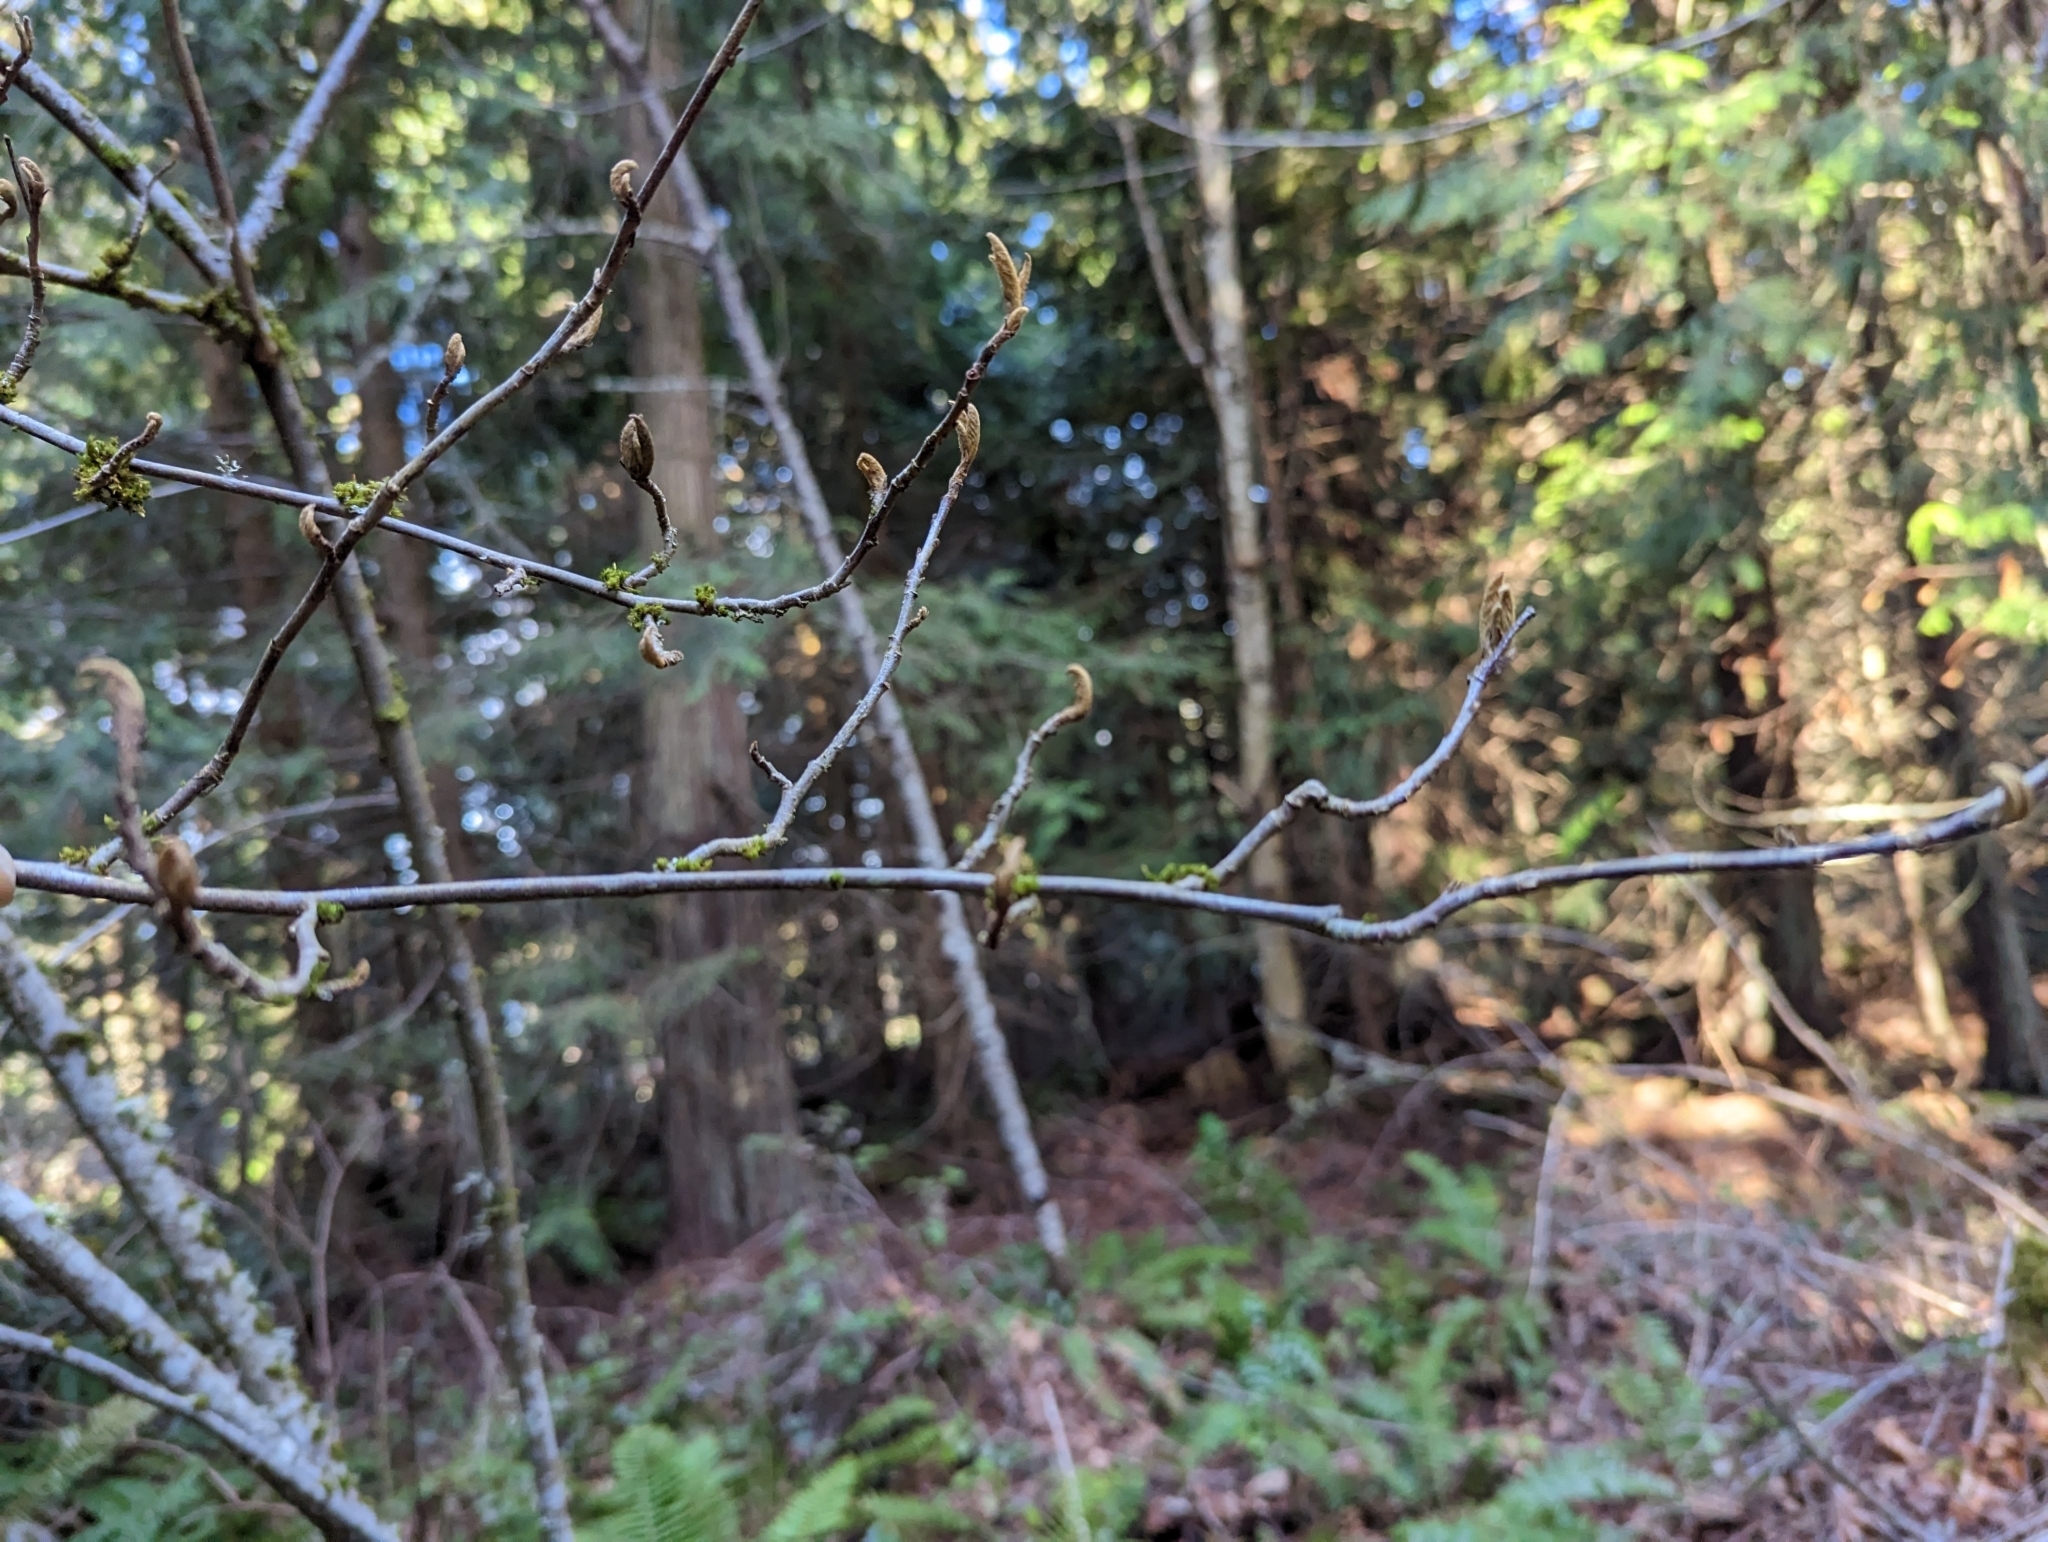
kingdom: Plantae
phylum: Tracheophyta
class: Magnoliopsida
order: Rosales
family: Rosaceae
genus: Cotoneaster
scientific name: Cotoneaster bullatus
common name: Hollyberry cotoneaster
